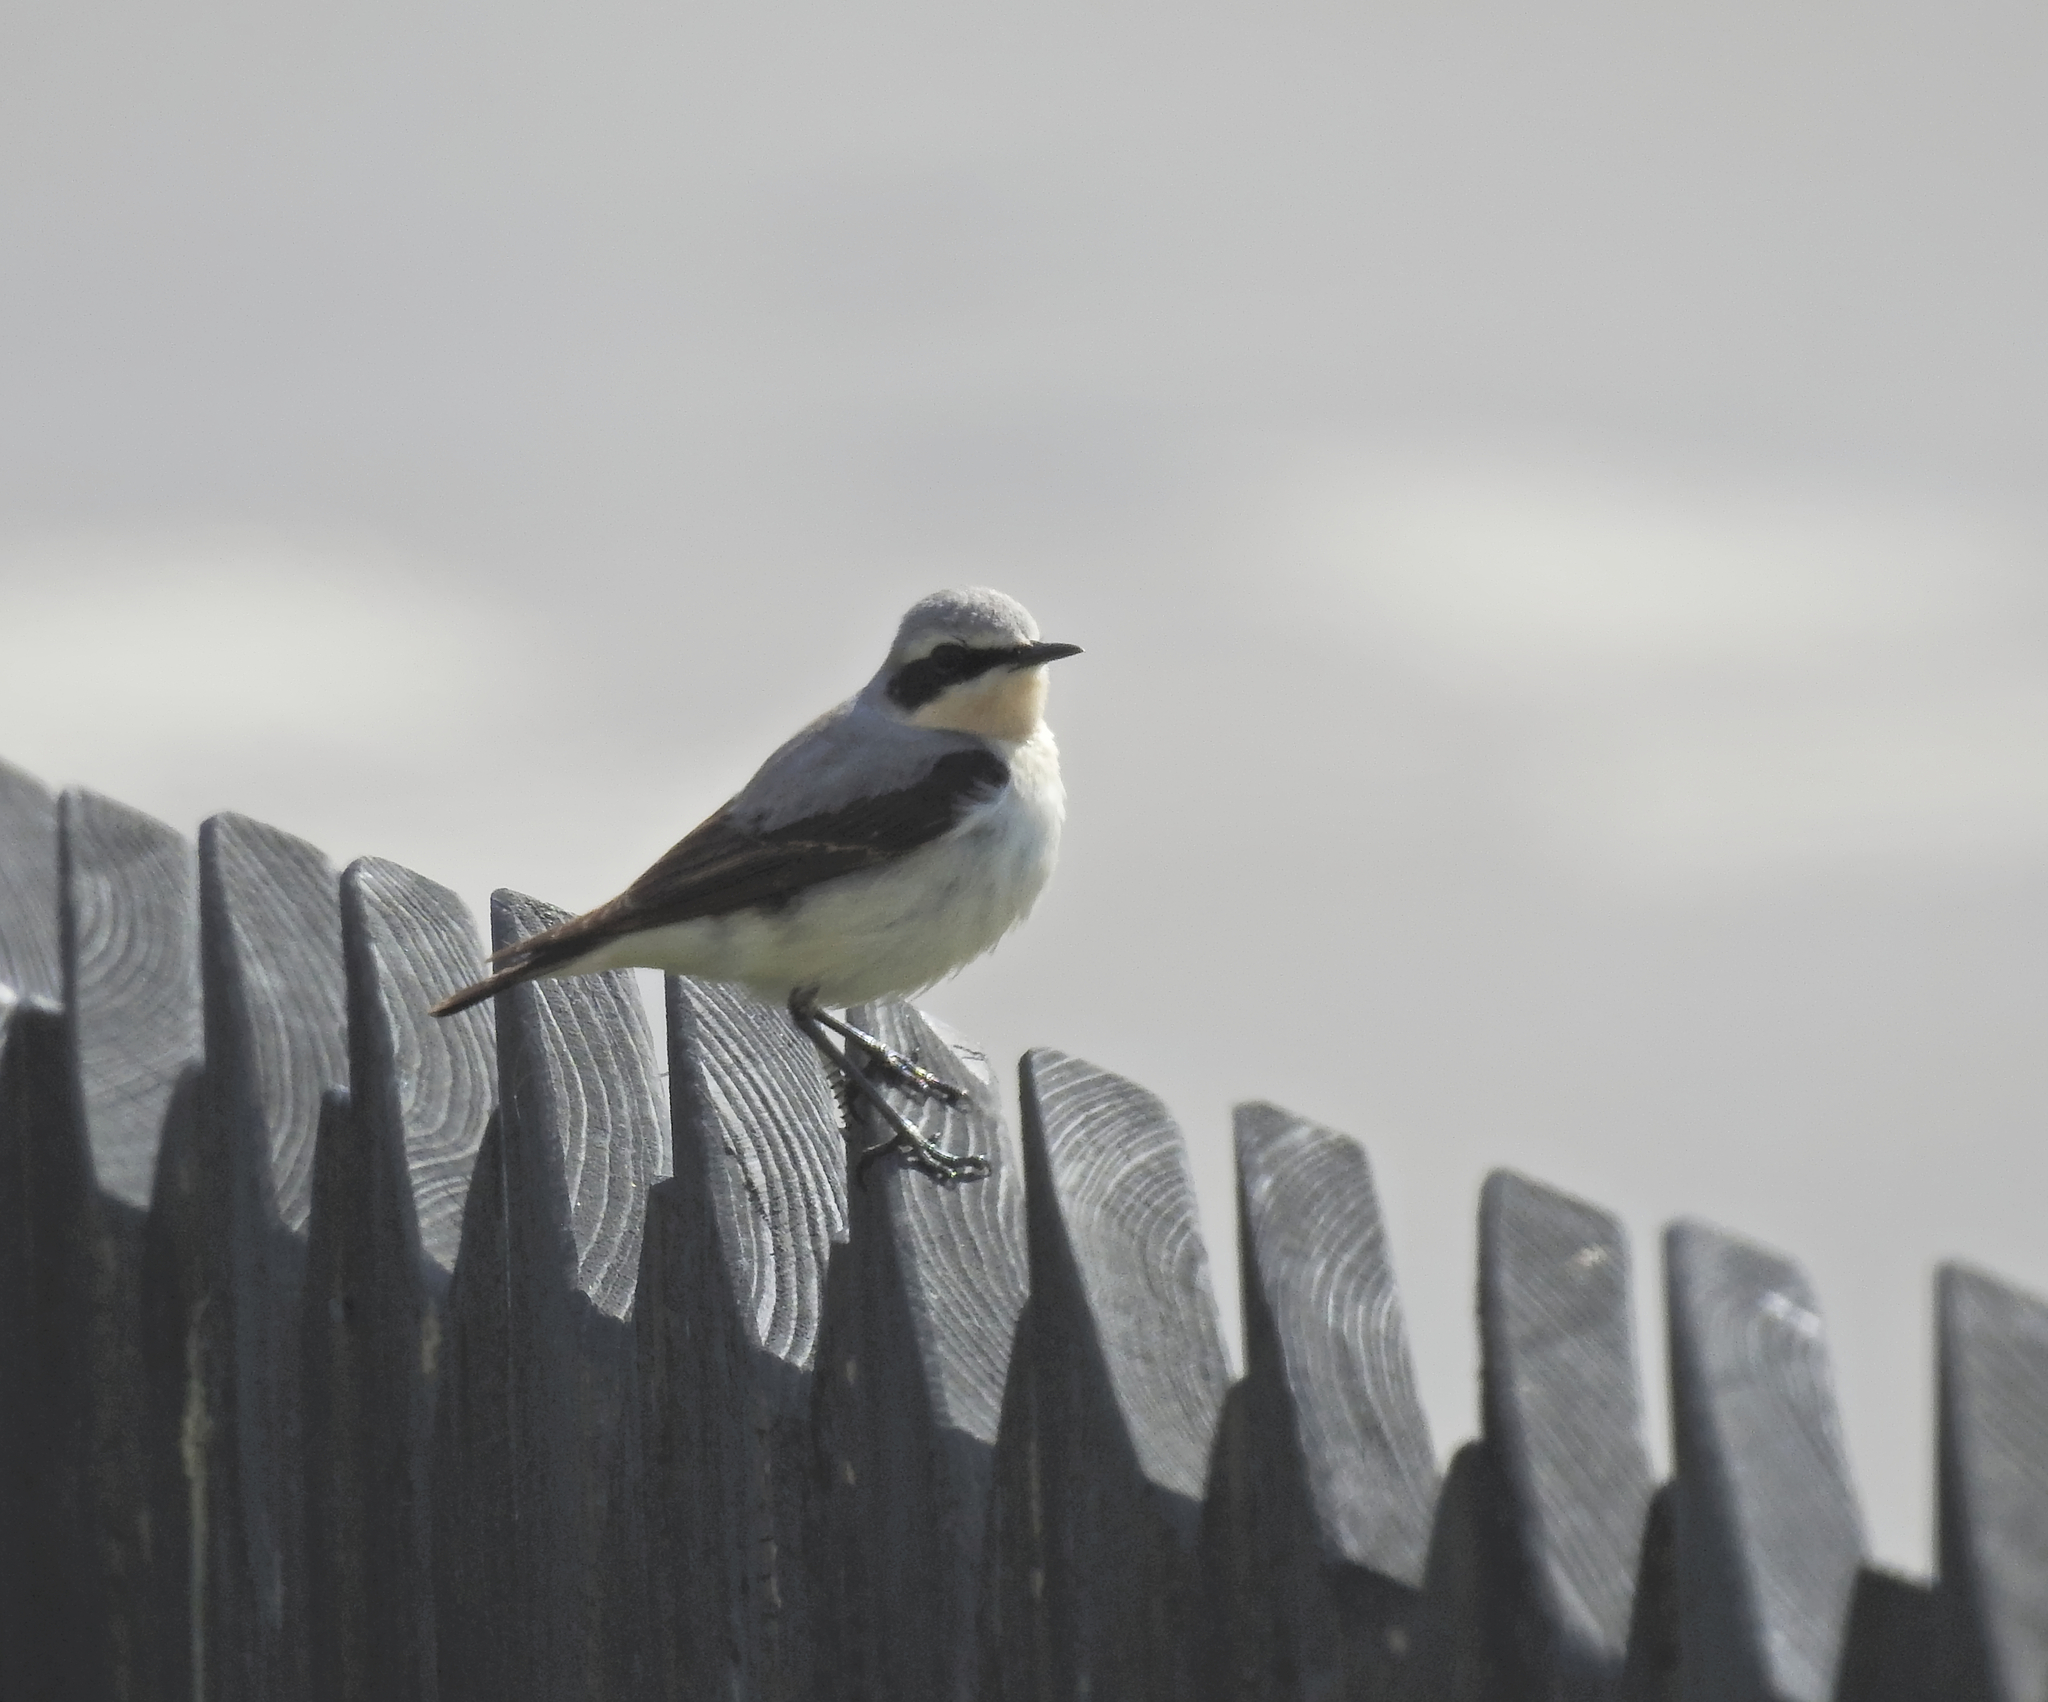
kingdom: Animalia
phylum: Chordata
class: Aves
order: Passeriformes
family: Muscicapidae
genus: Oenanthe
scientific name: Oenanthe oenanthe
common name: Northern wheatear
